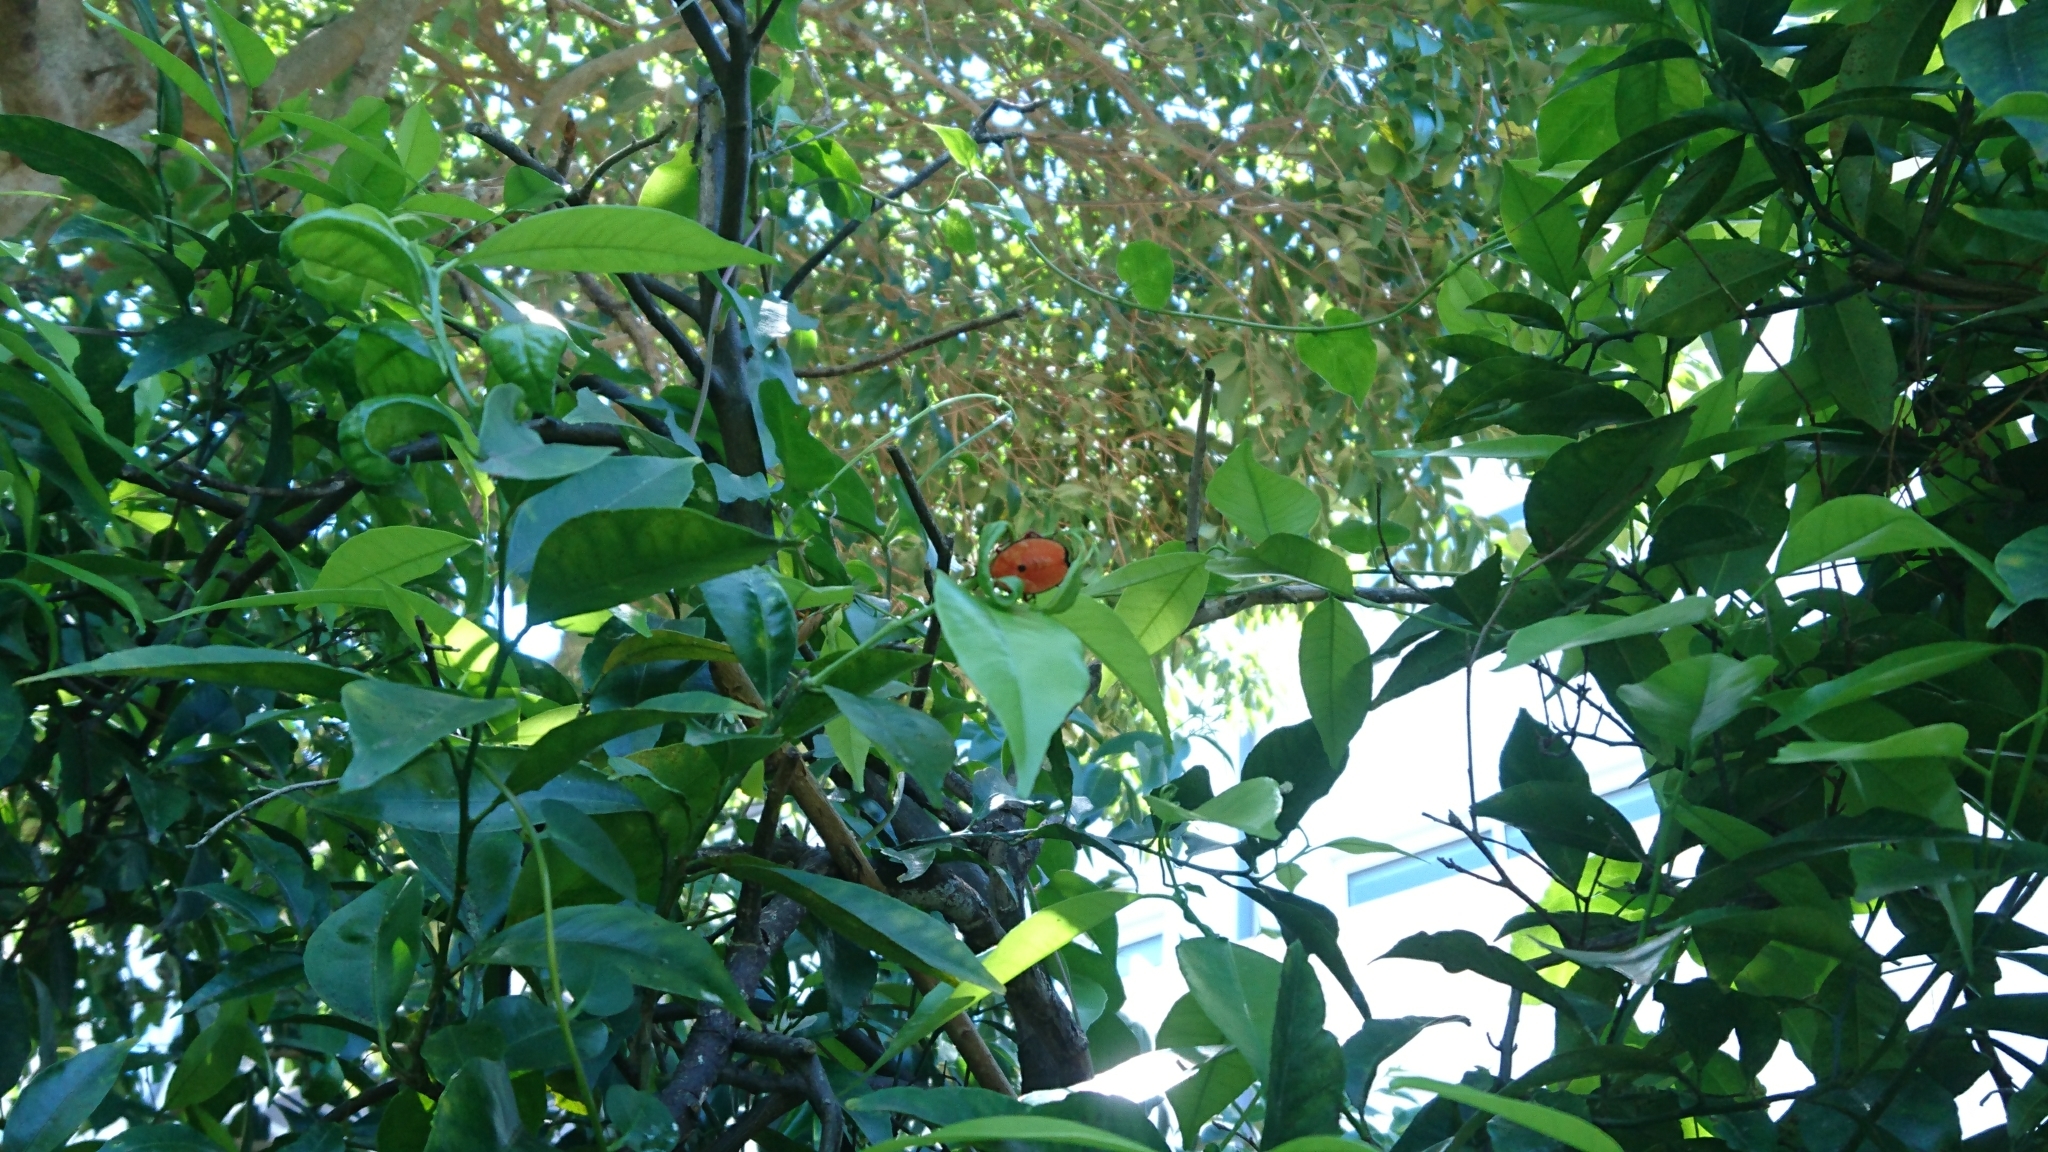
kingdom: Animalia
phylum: Arthropoda
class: Insecta
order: Hemiptera
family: Tessaratomidae
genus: Musgraveia
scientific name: Musgraveia sulciventris
